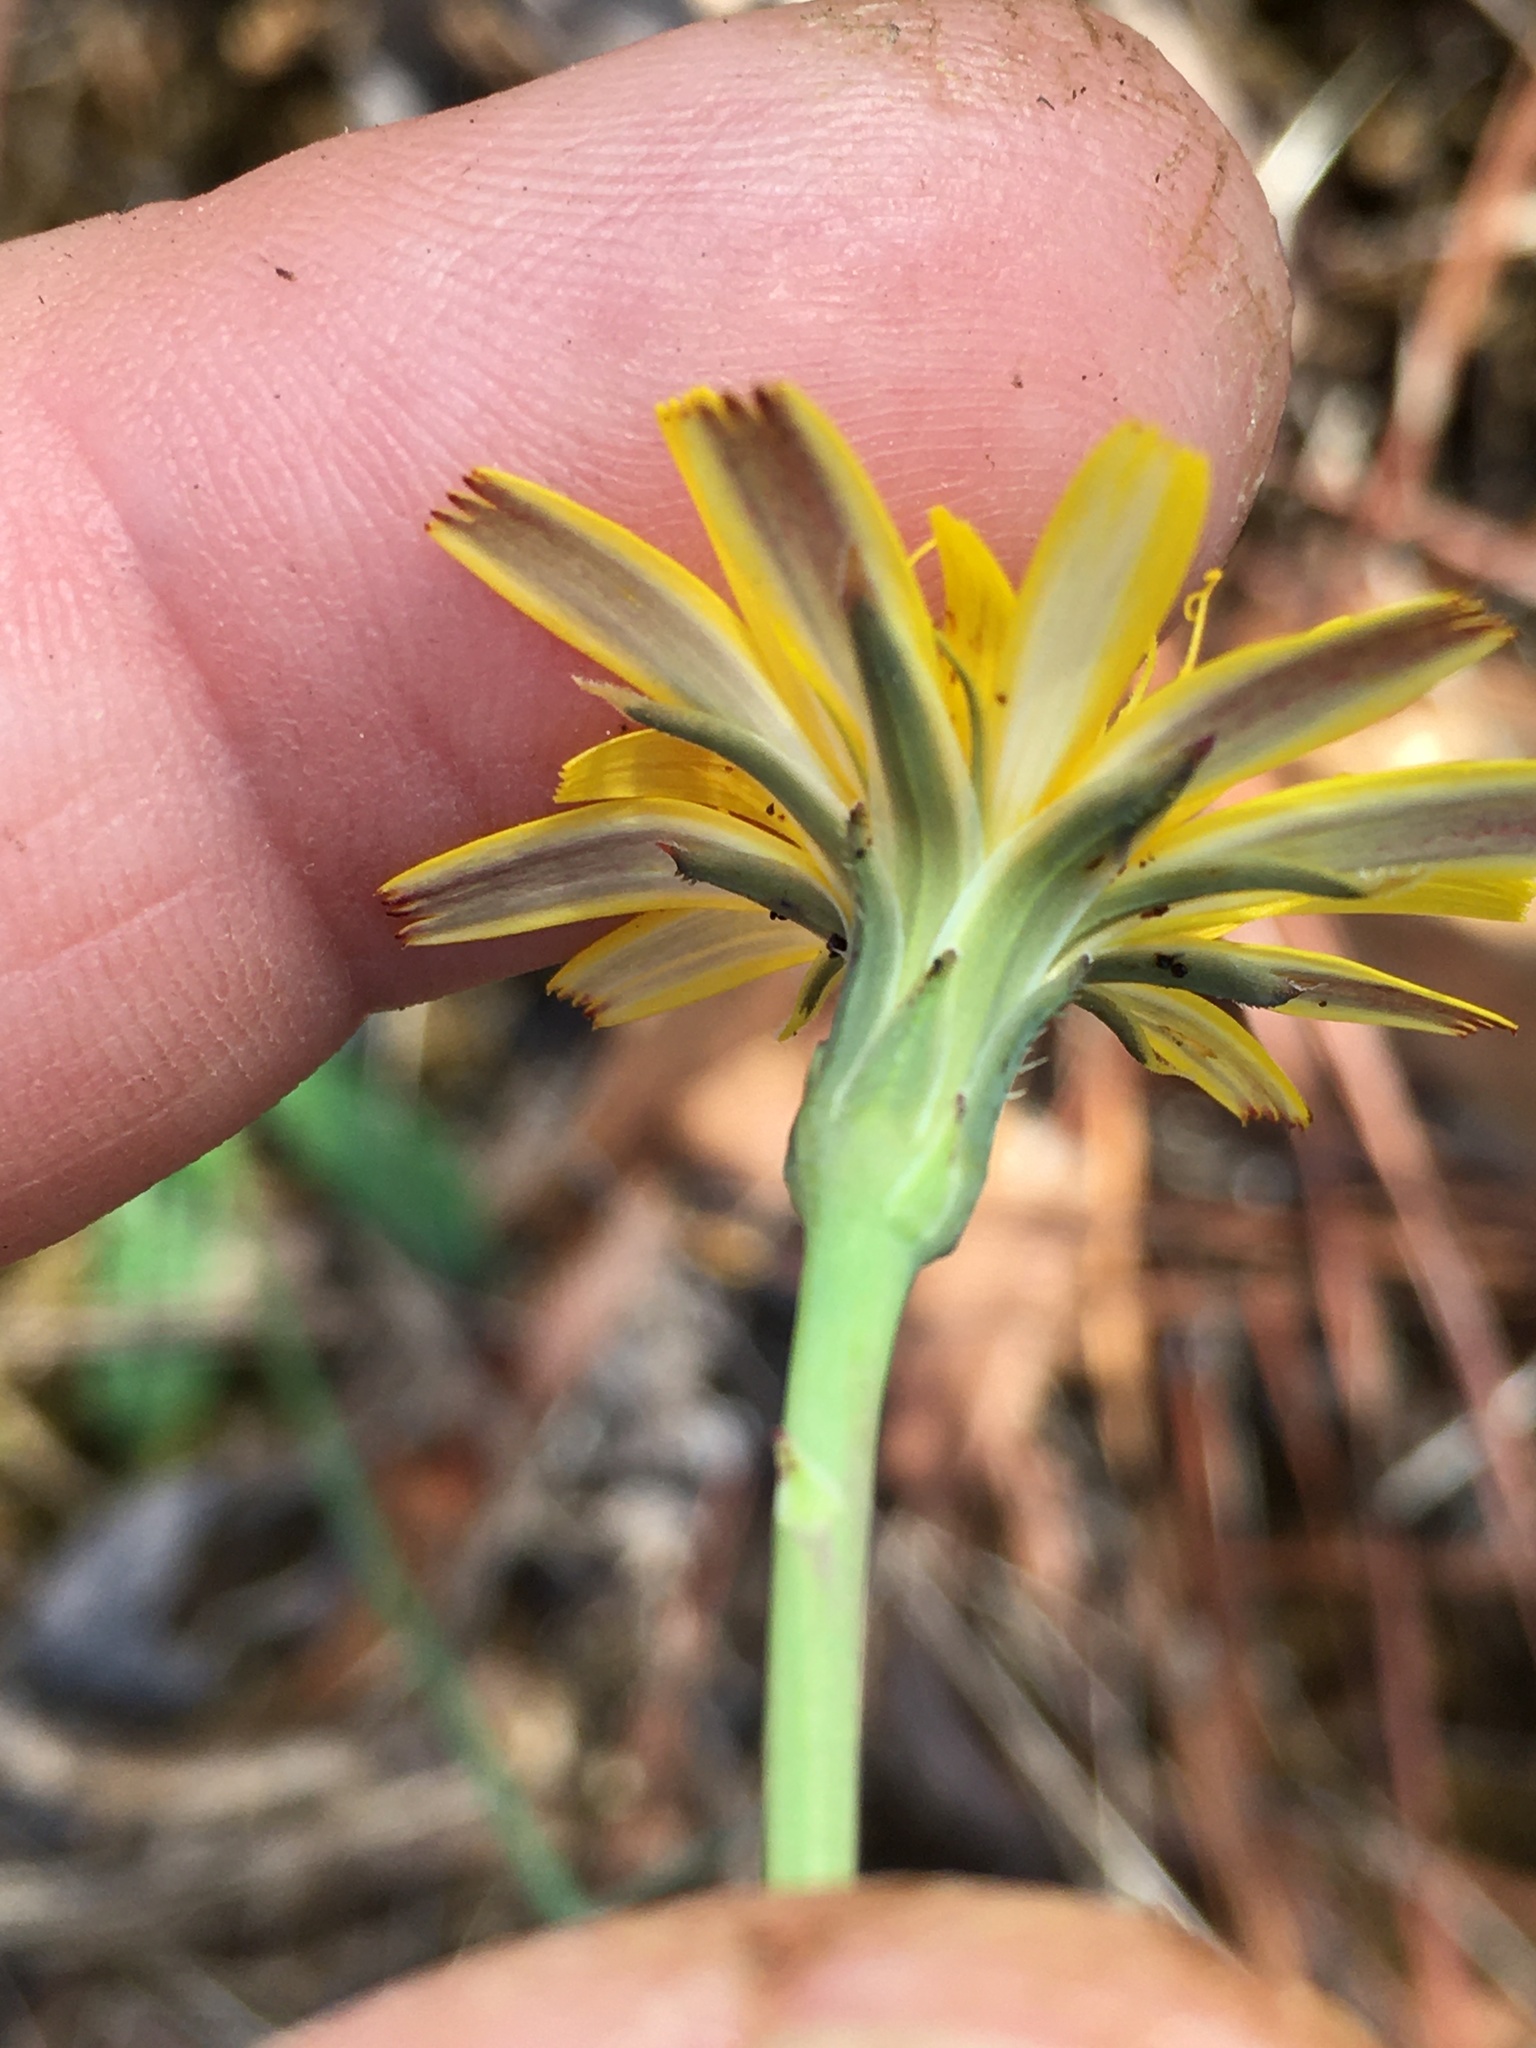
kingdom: Plantae
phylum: Tracheophyta
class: Magnoliopsida
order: Asterales
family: Asteraceae
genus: Hypochaeris
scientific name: Hypochaeris radicata
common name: Flatweed
